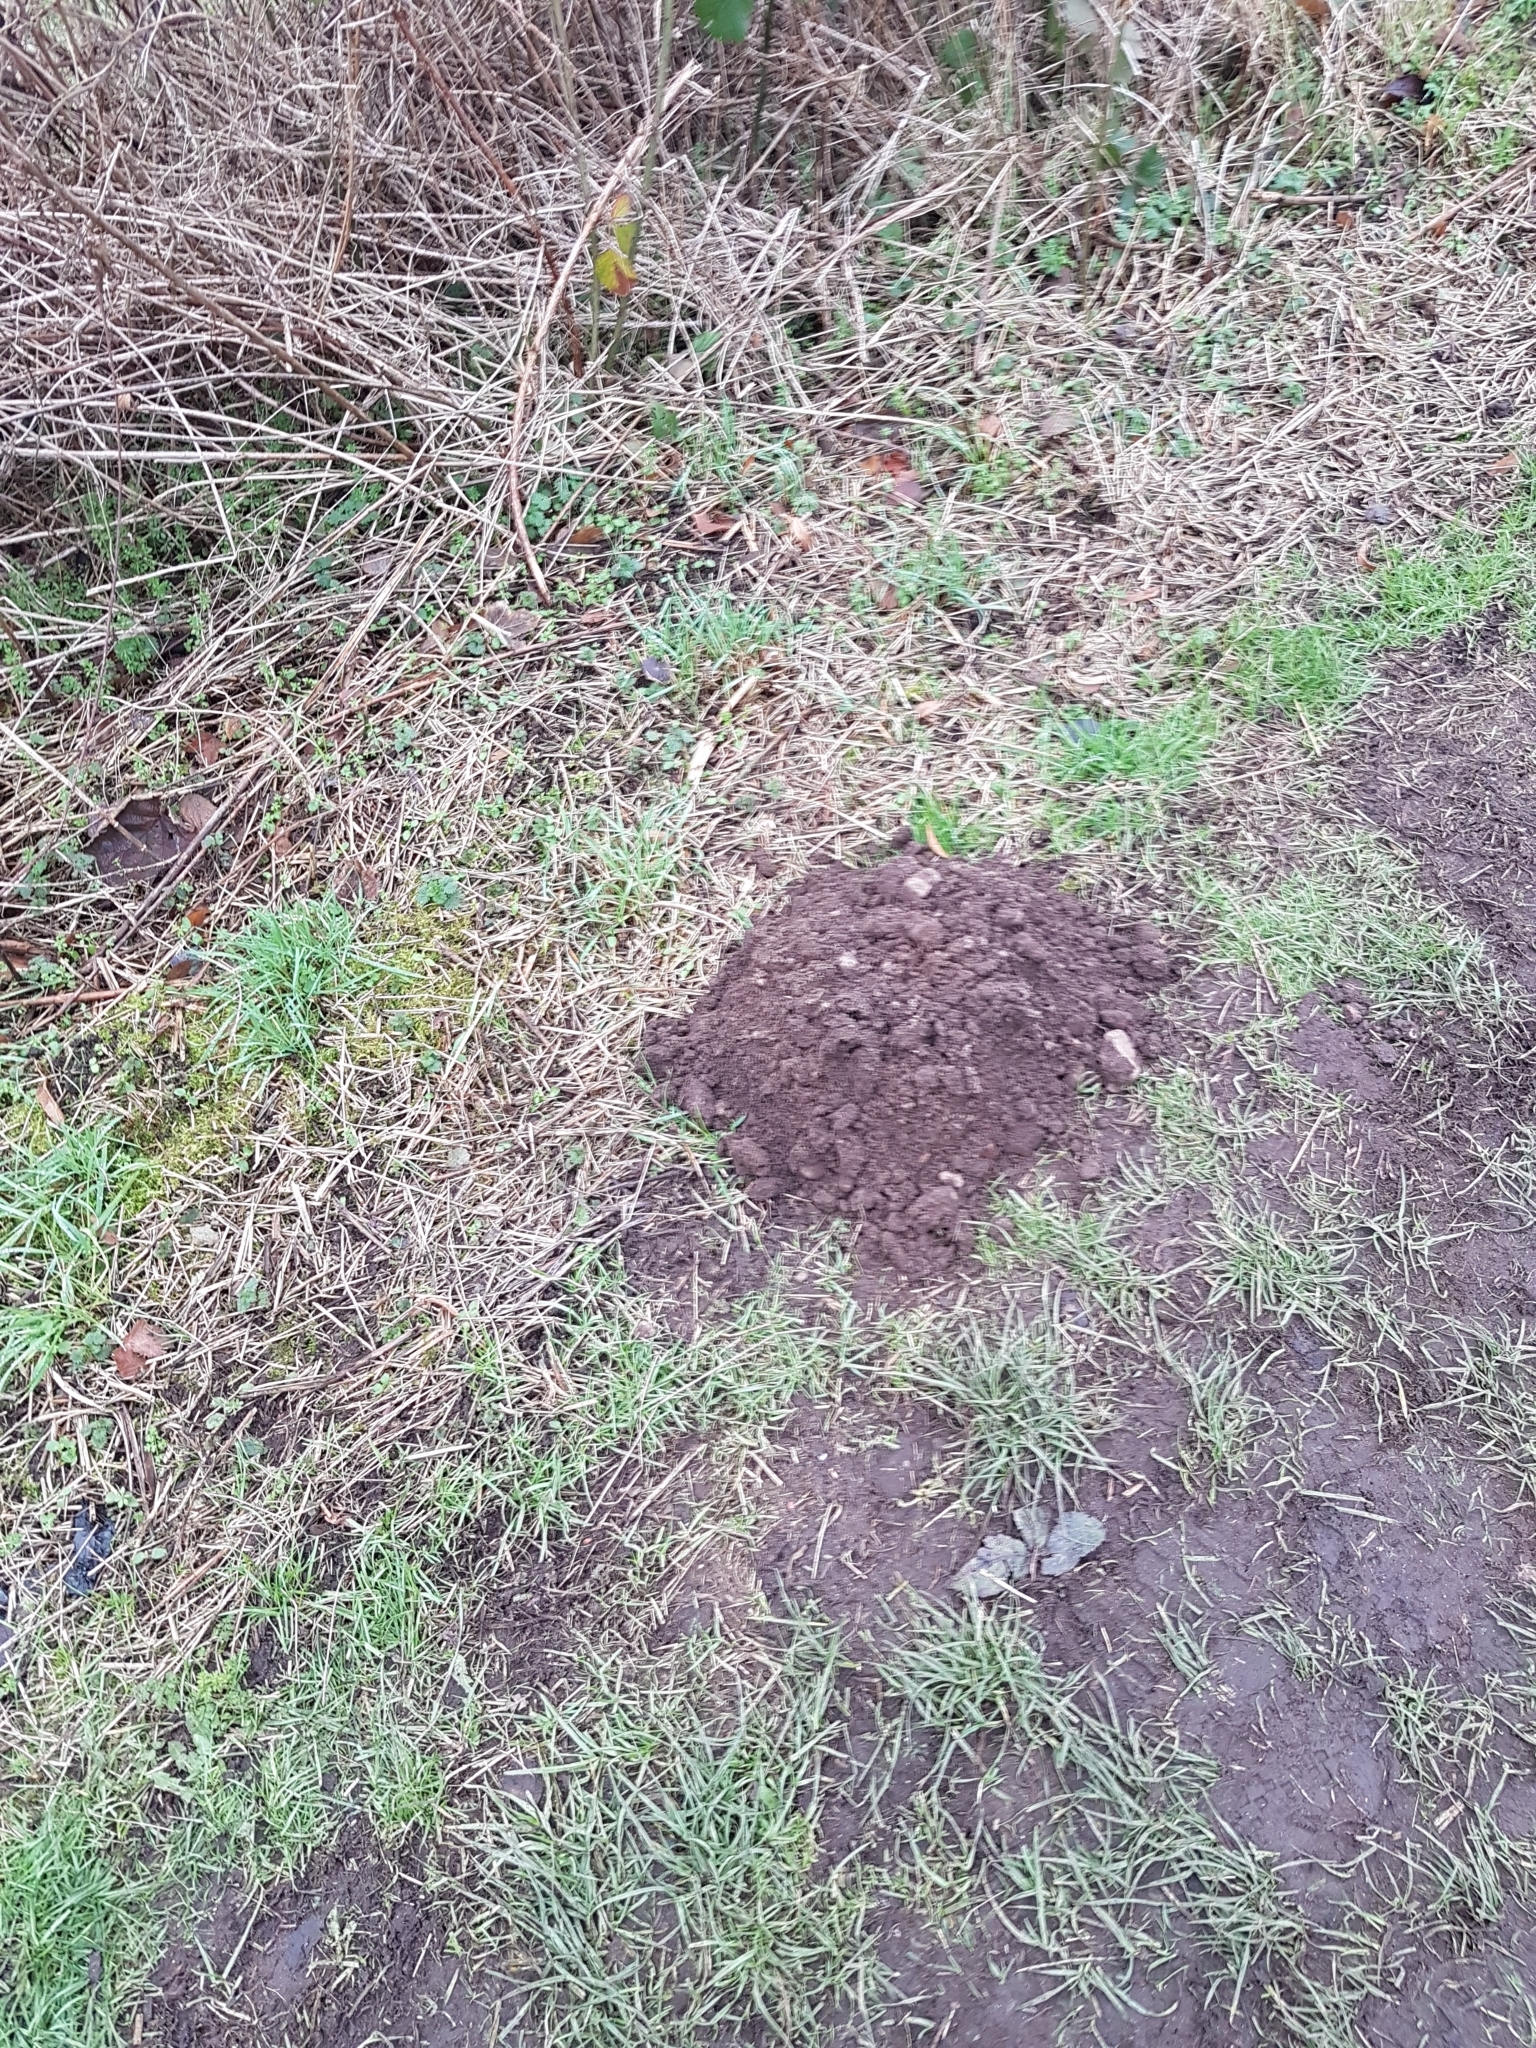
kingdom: Animalia
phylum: Chordata
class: Mammalia
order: Soricomorpha
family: Talpidae
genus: Talpa
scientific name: Talpa europaea
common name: European mole
